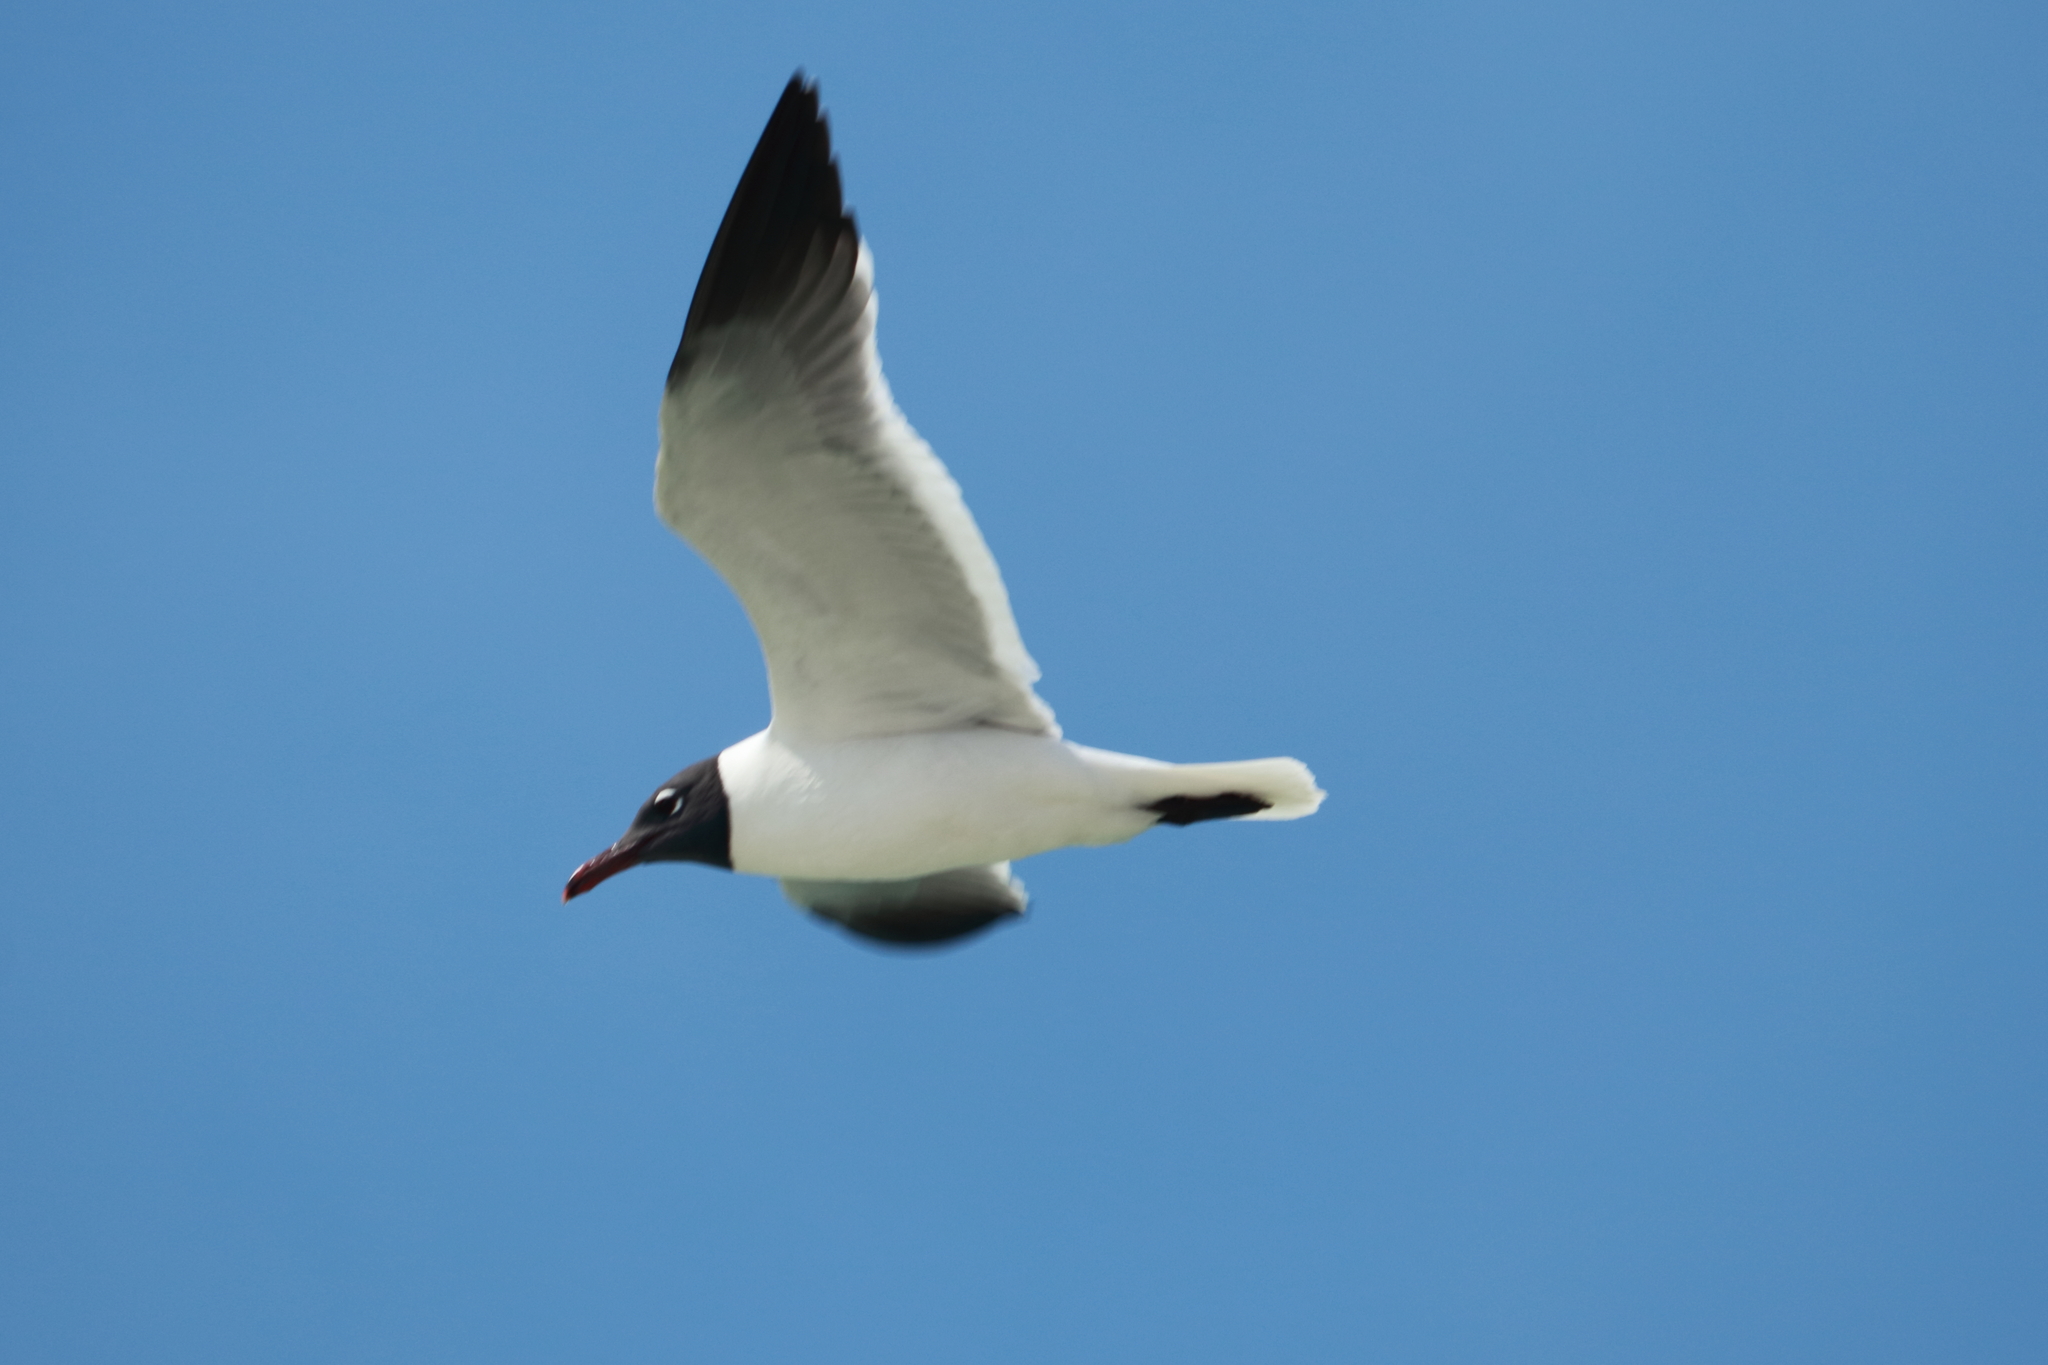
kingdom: Animalia
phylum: Chordata
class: Aves
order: Charadriiformes
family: Laridae
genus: Leucophaeus
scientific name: Leucophaeus atricilla
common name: Laughing gull
